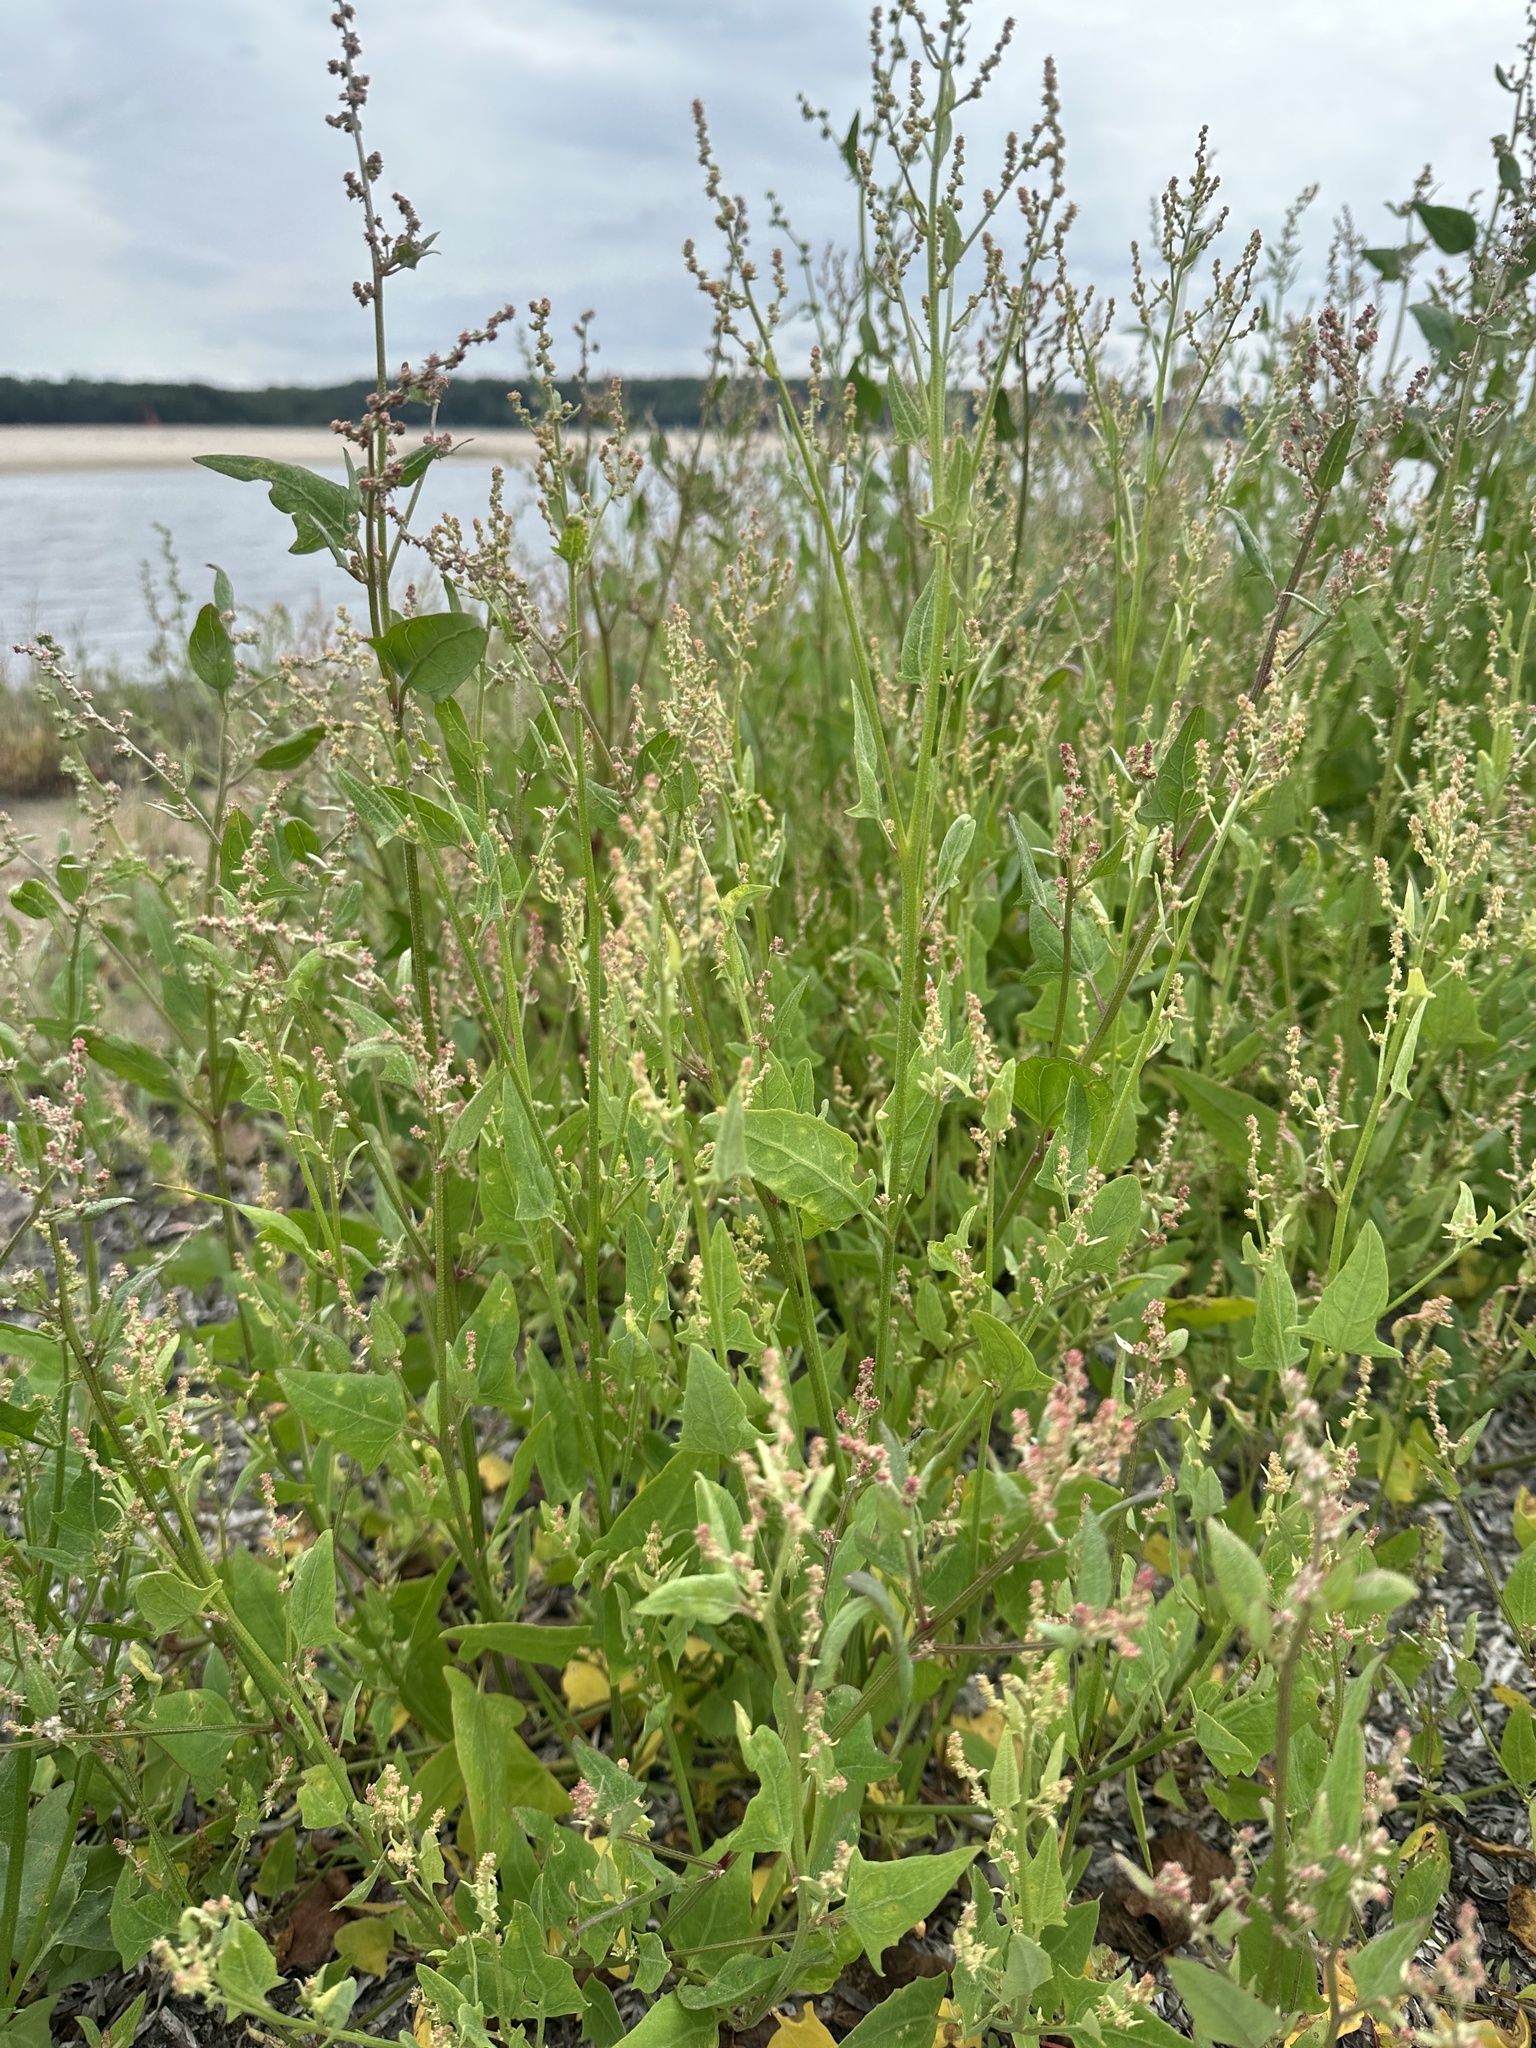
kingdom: Plantae
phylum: Tracheophyta
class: Magnoliopsida
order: Caryophyllales
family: Amaranthaceae
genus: Atriplex
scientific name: Atriplex prostrata
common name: Spear-leaved orache
